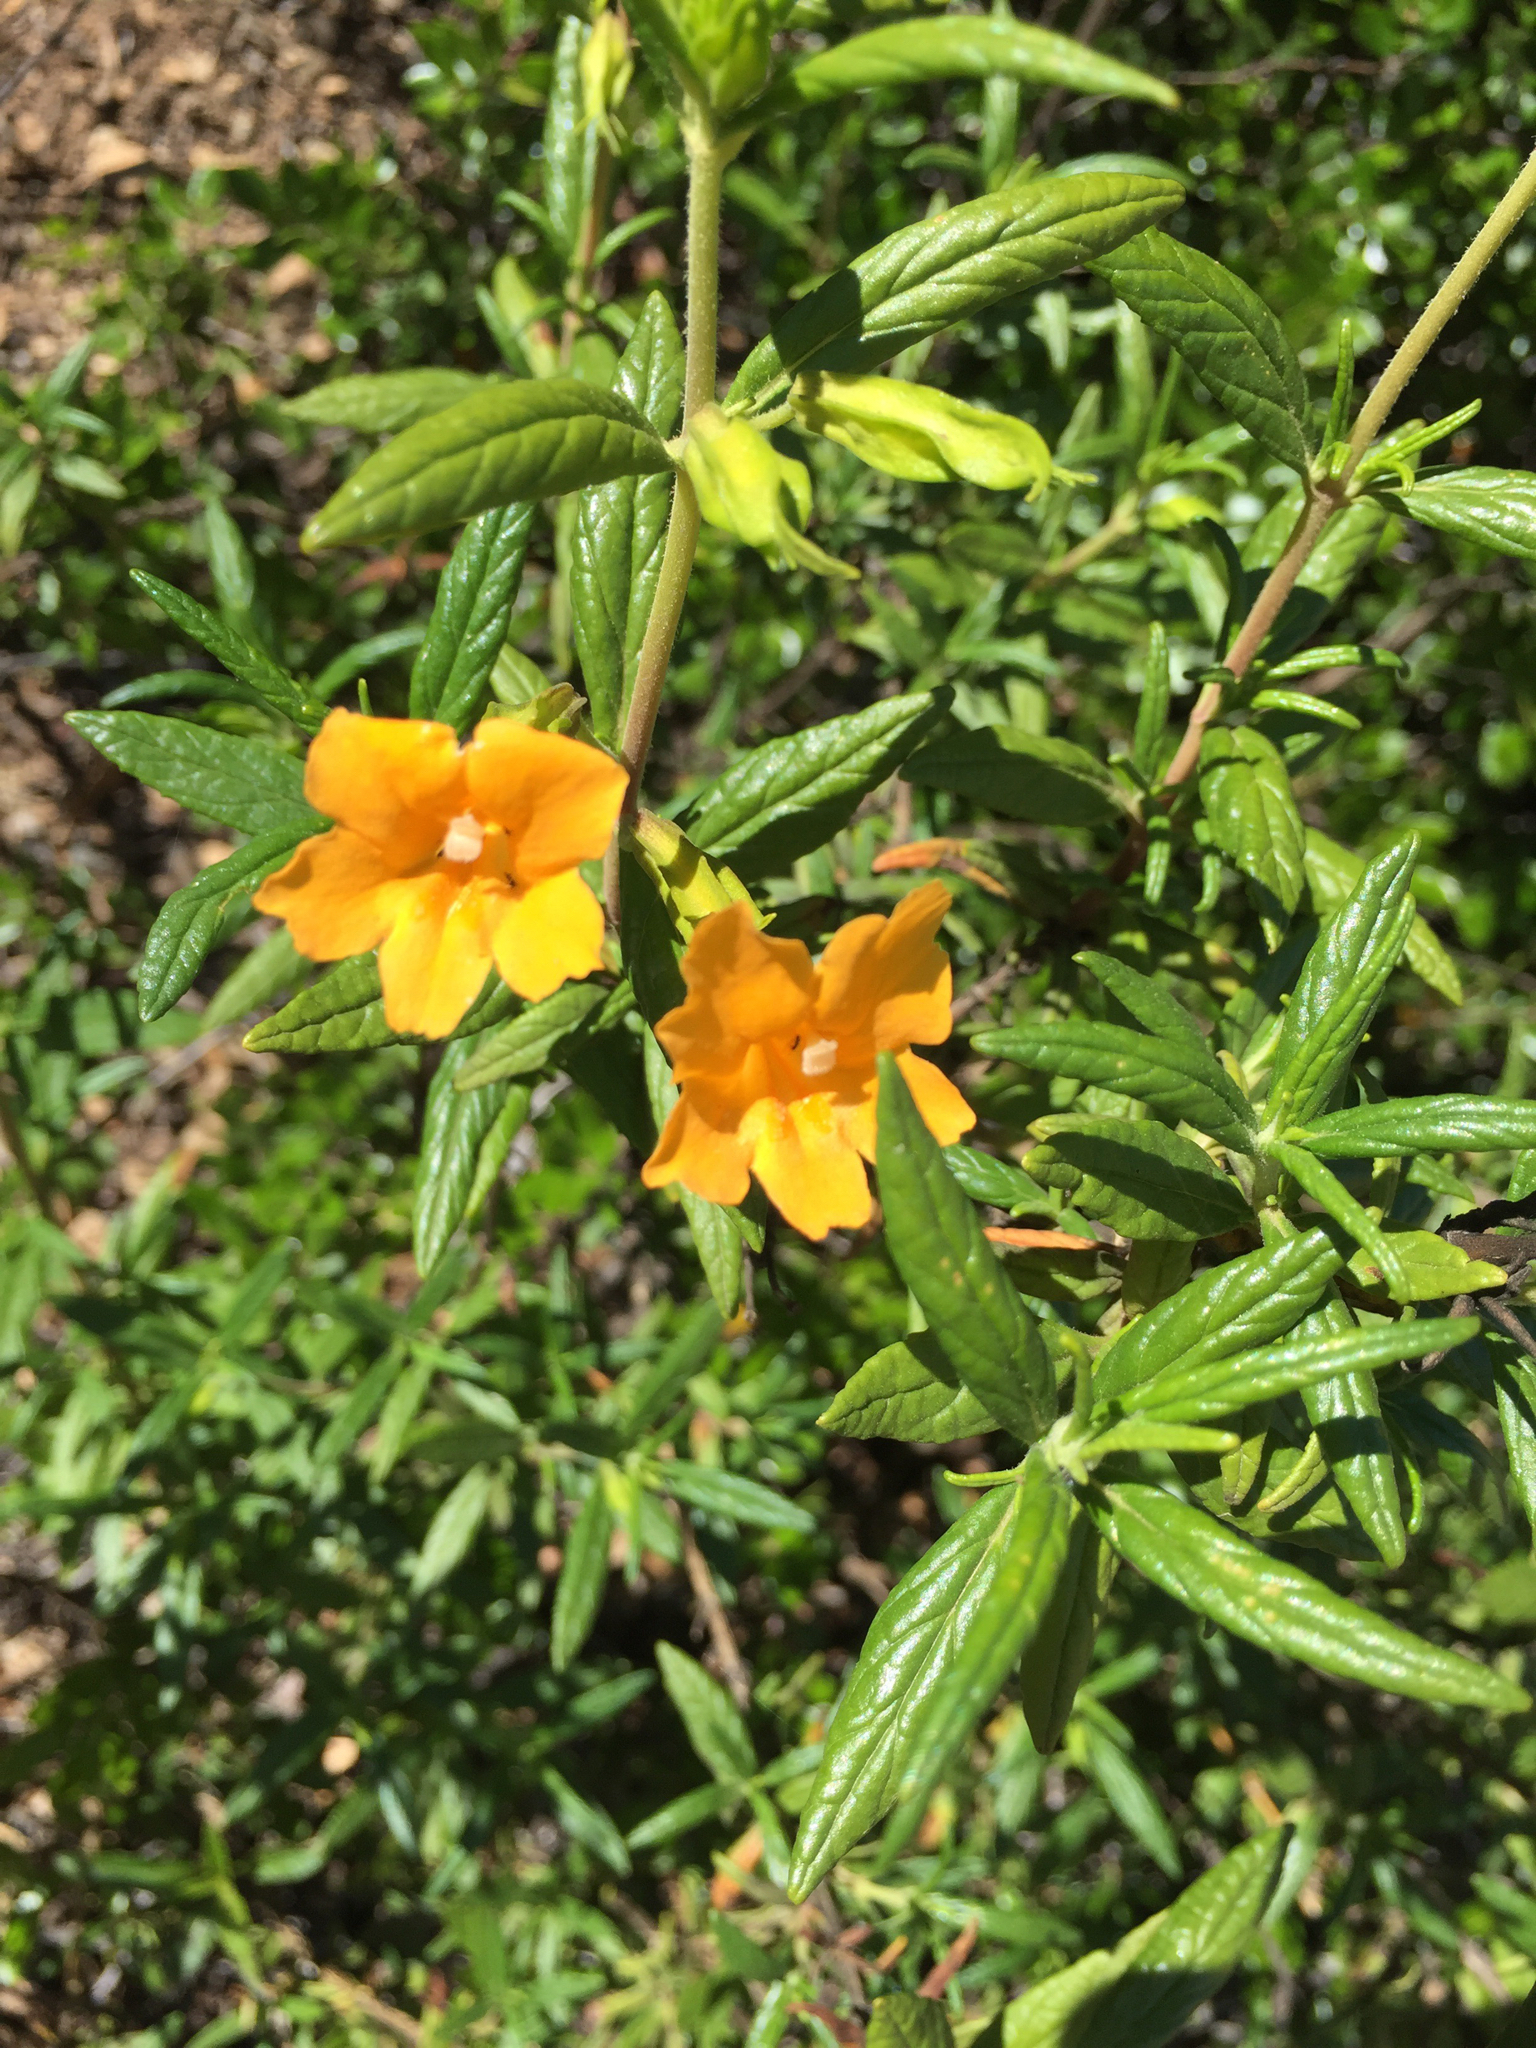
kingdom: Plantae
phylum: Tracheophyta
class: Magnoliopsida
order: Lamiales
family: Phrymaceae
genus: Diplacus
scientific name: Diplacus aurantiacus
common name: Bush monkey-flower
